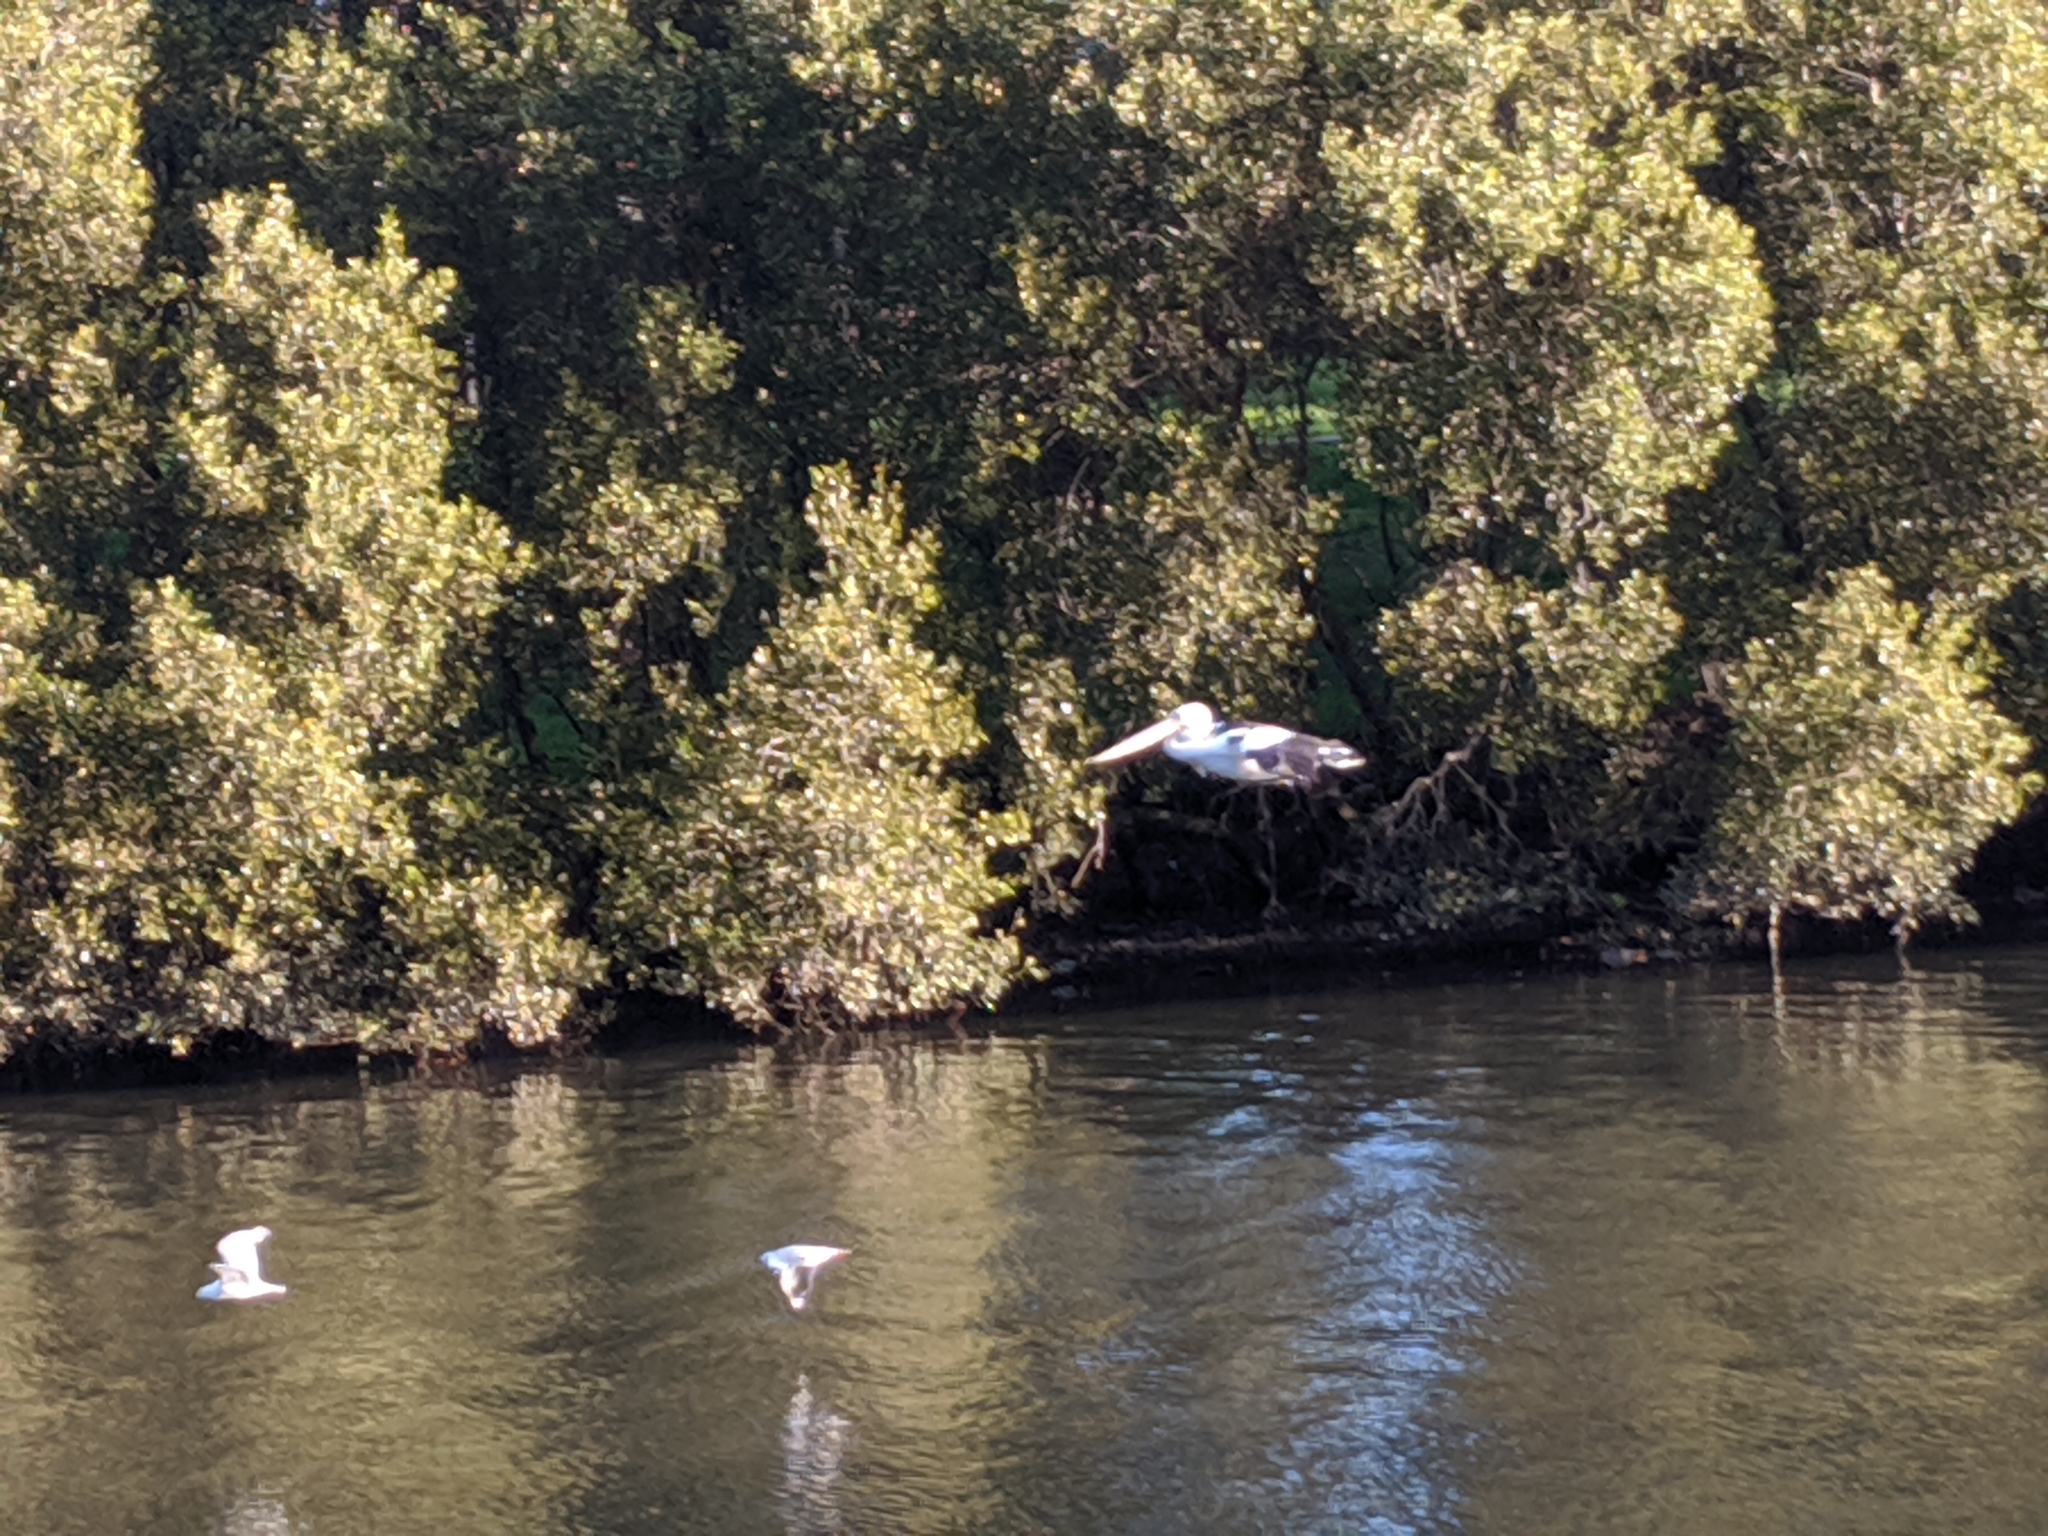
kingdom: Animalia
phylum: Chordata
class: Aves
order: Pelecaniformes
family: Pelecanidae
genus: Pelecanus
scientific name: Pelecanus conspicillatus
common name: Australian pelican
